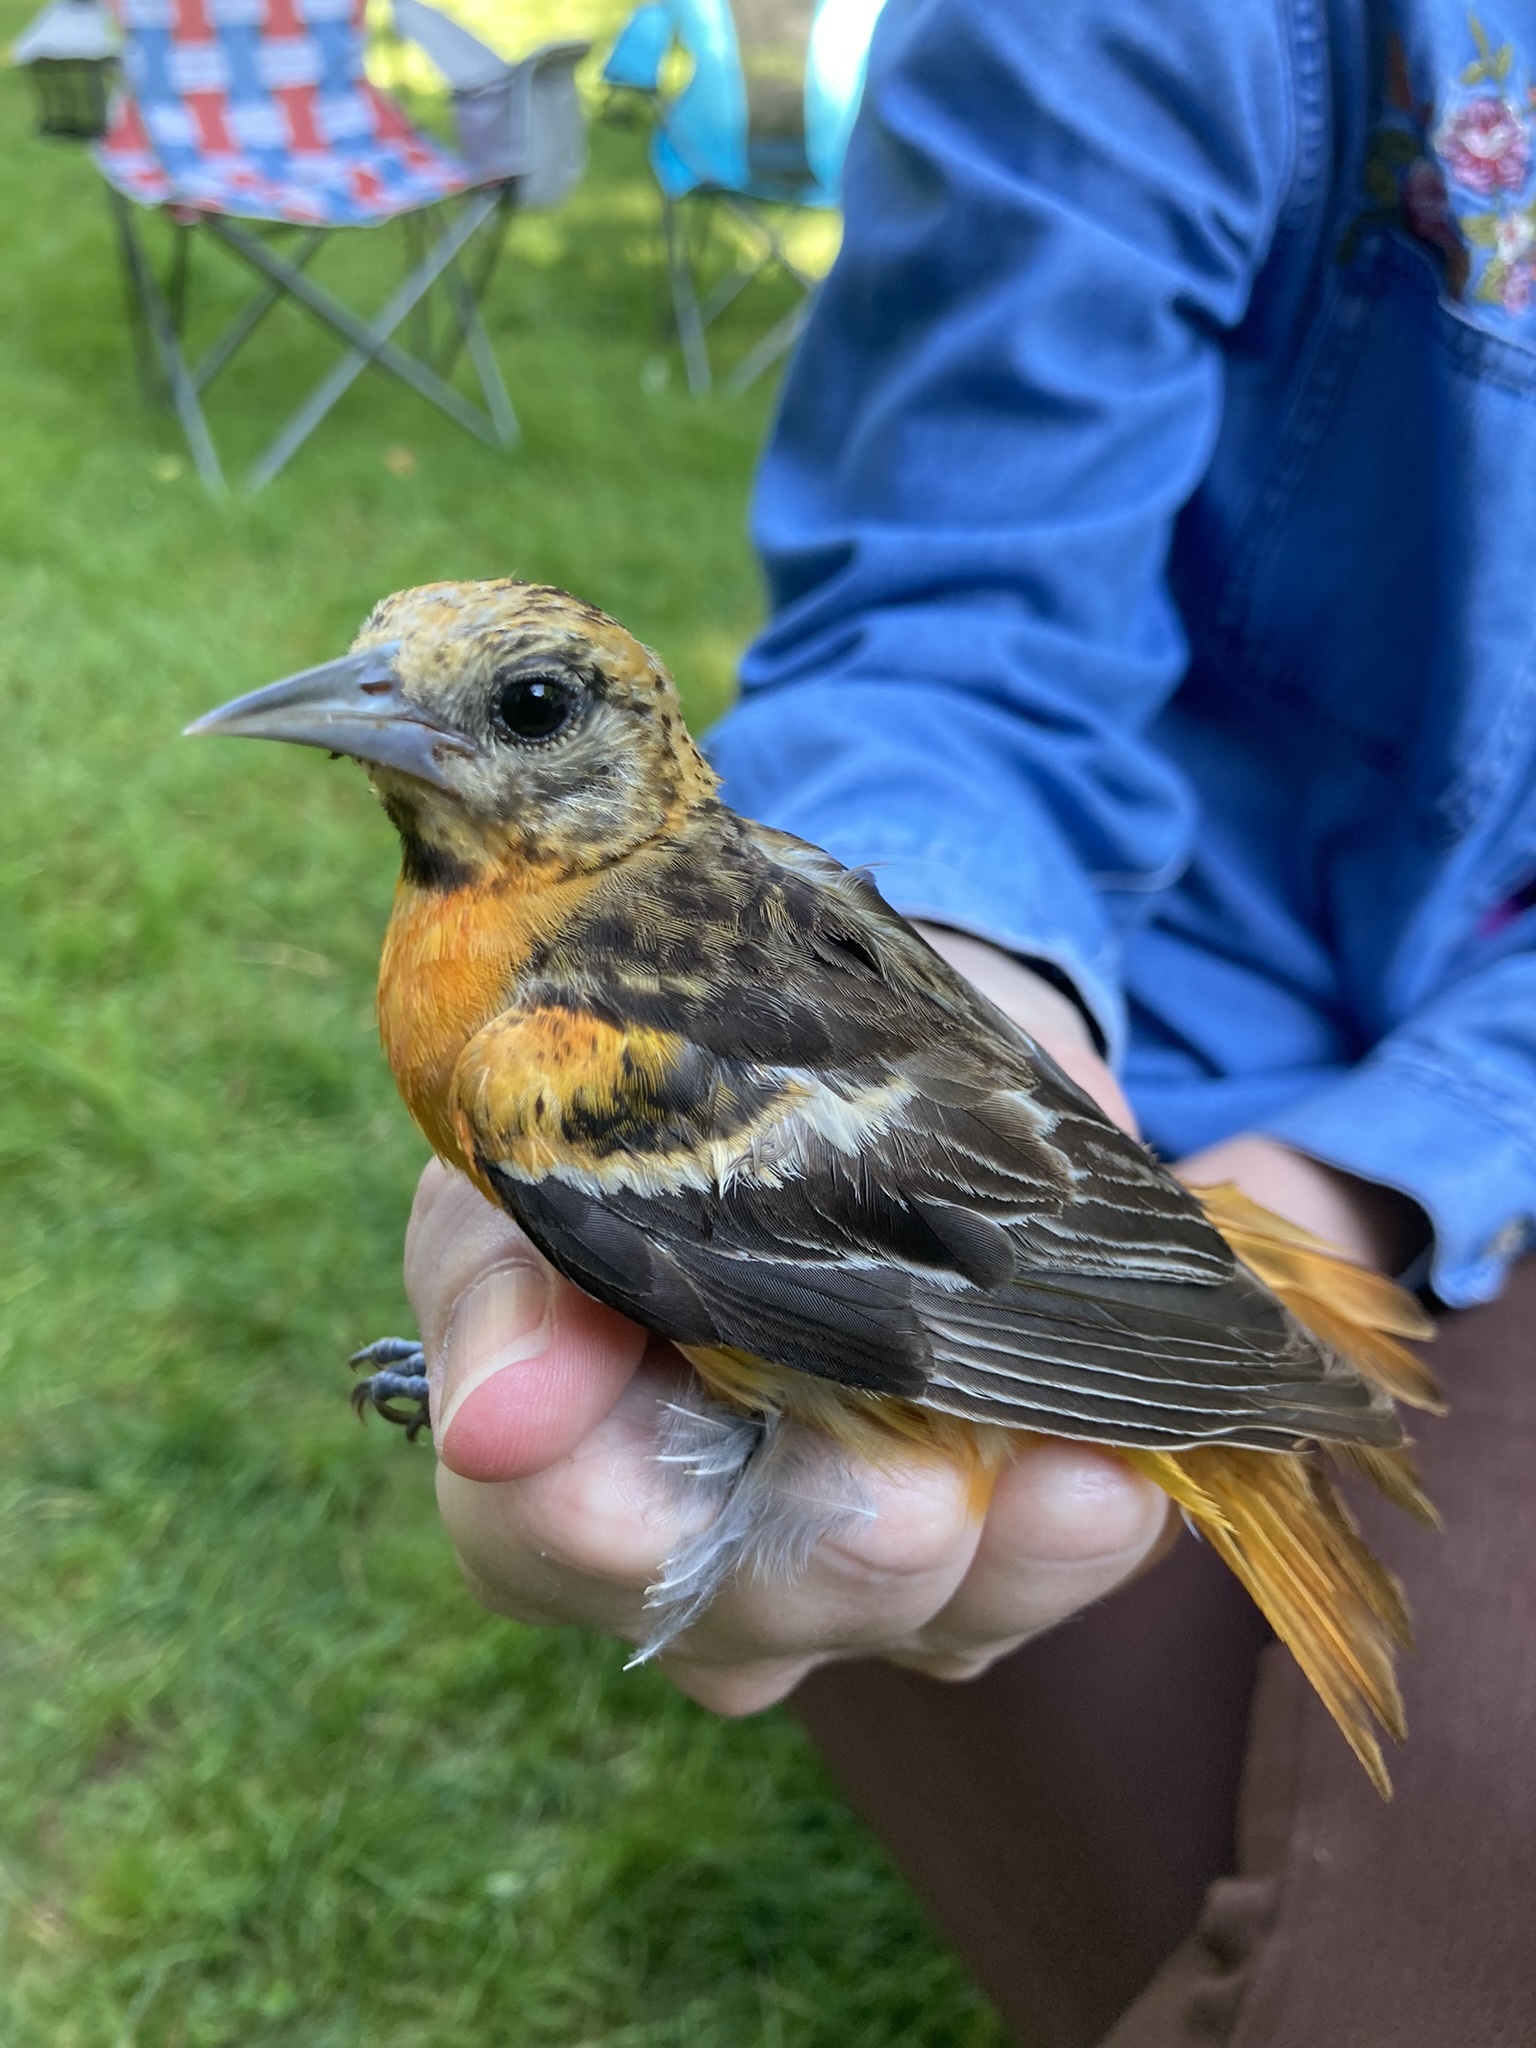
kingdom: Animalia
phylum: Chordata
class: Aves
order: Passeriformes
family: Icteridae
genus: Icterus
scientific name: Icterus galbula
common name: Baltimore oriole
